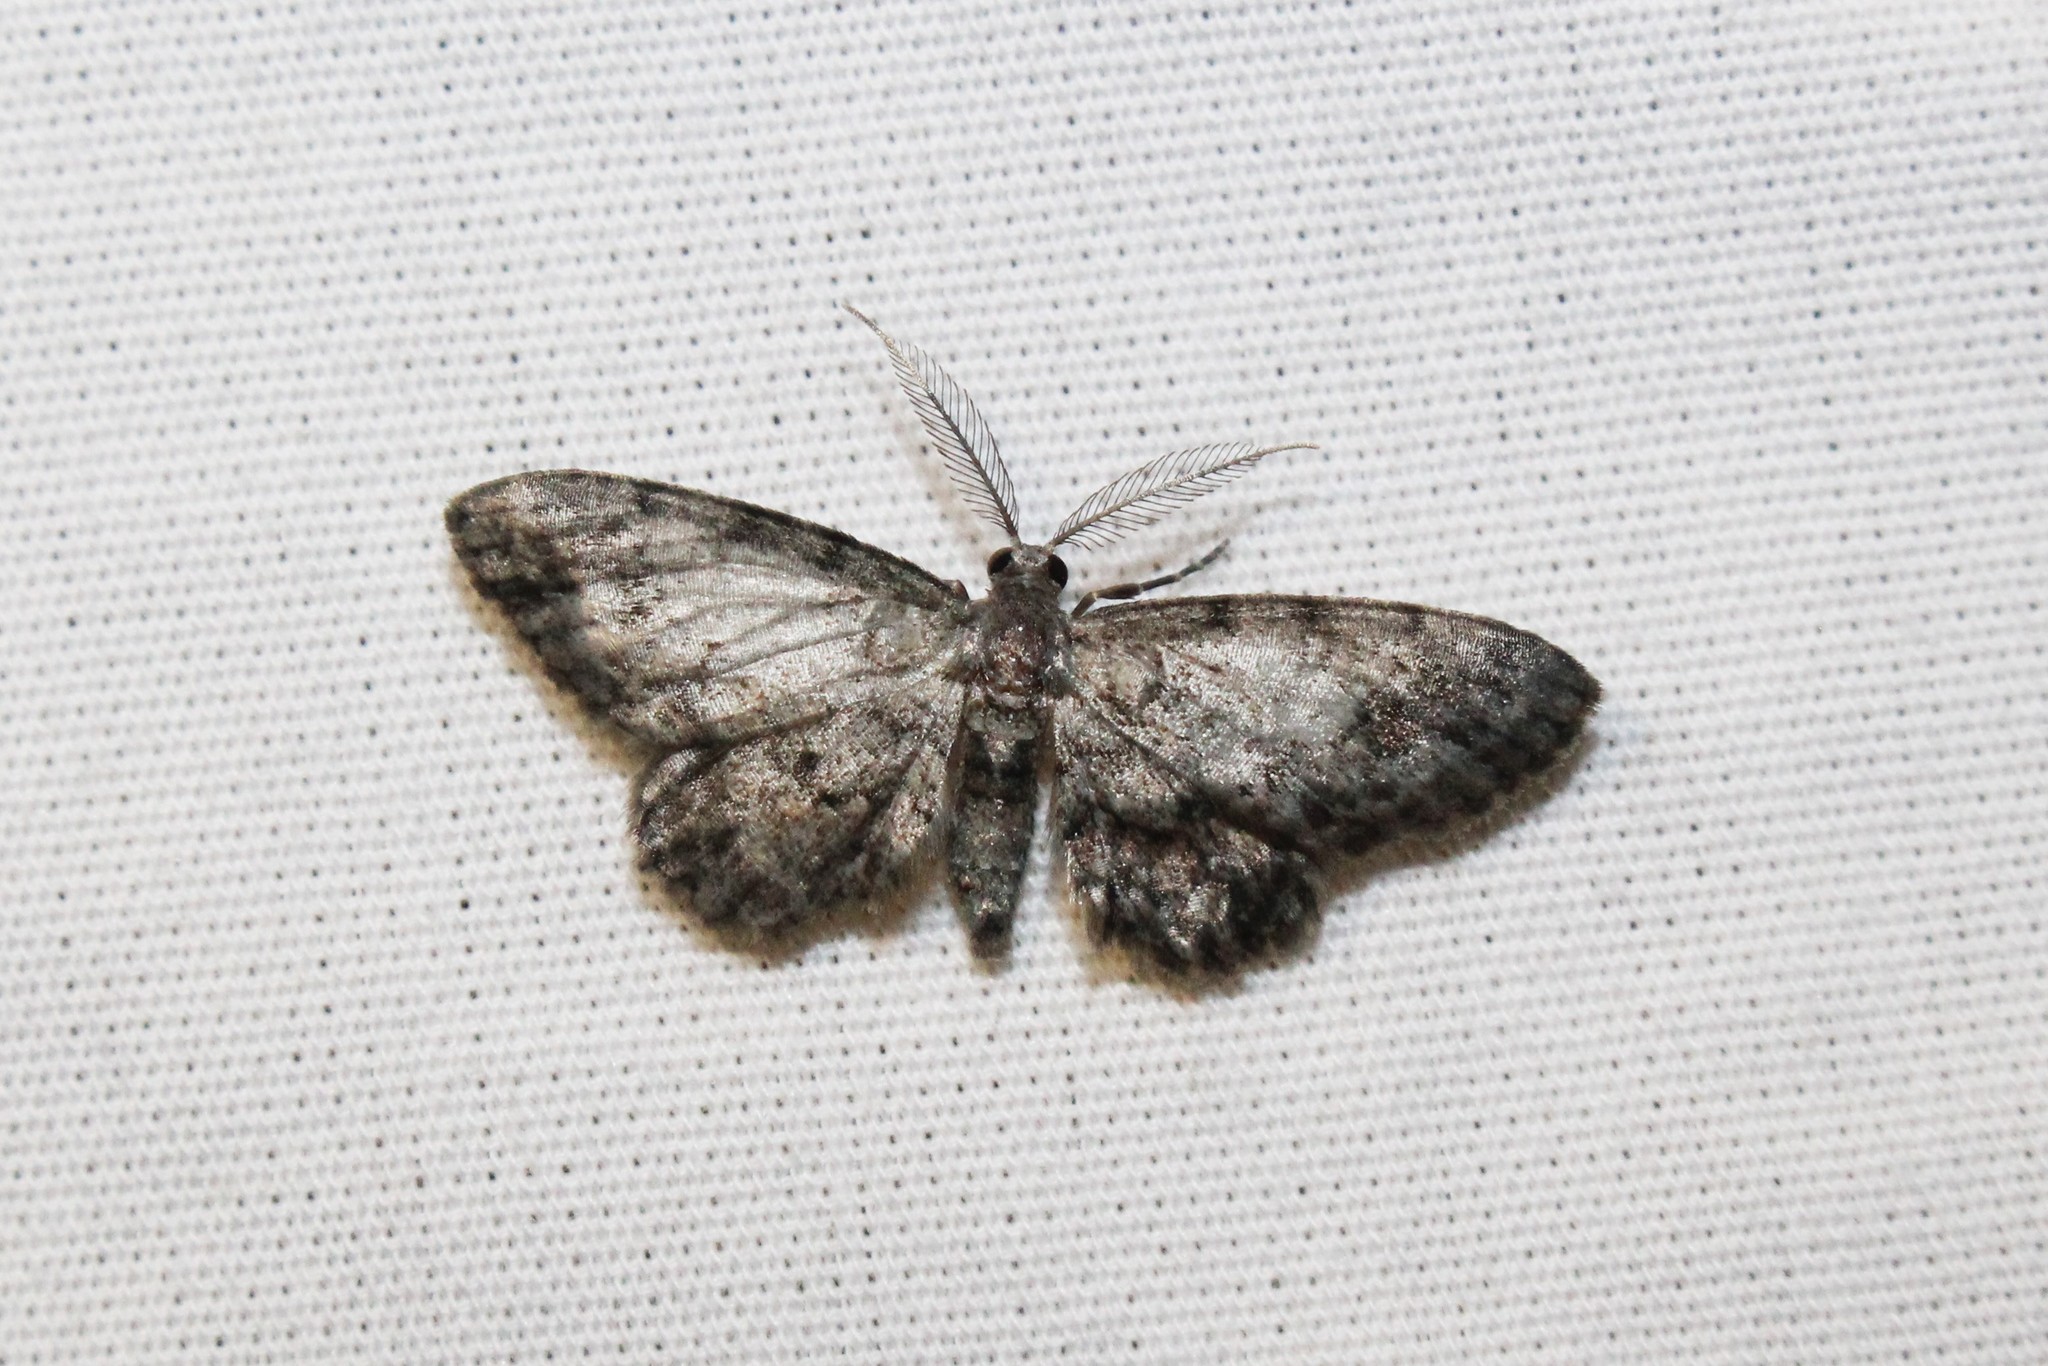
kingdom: Animalia
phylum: Arthropoda
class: Insecta
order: Lepidoptera
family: Geometridae
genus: Glenoides
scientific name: Glenoides texanaria
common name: Texas gray
